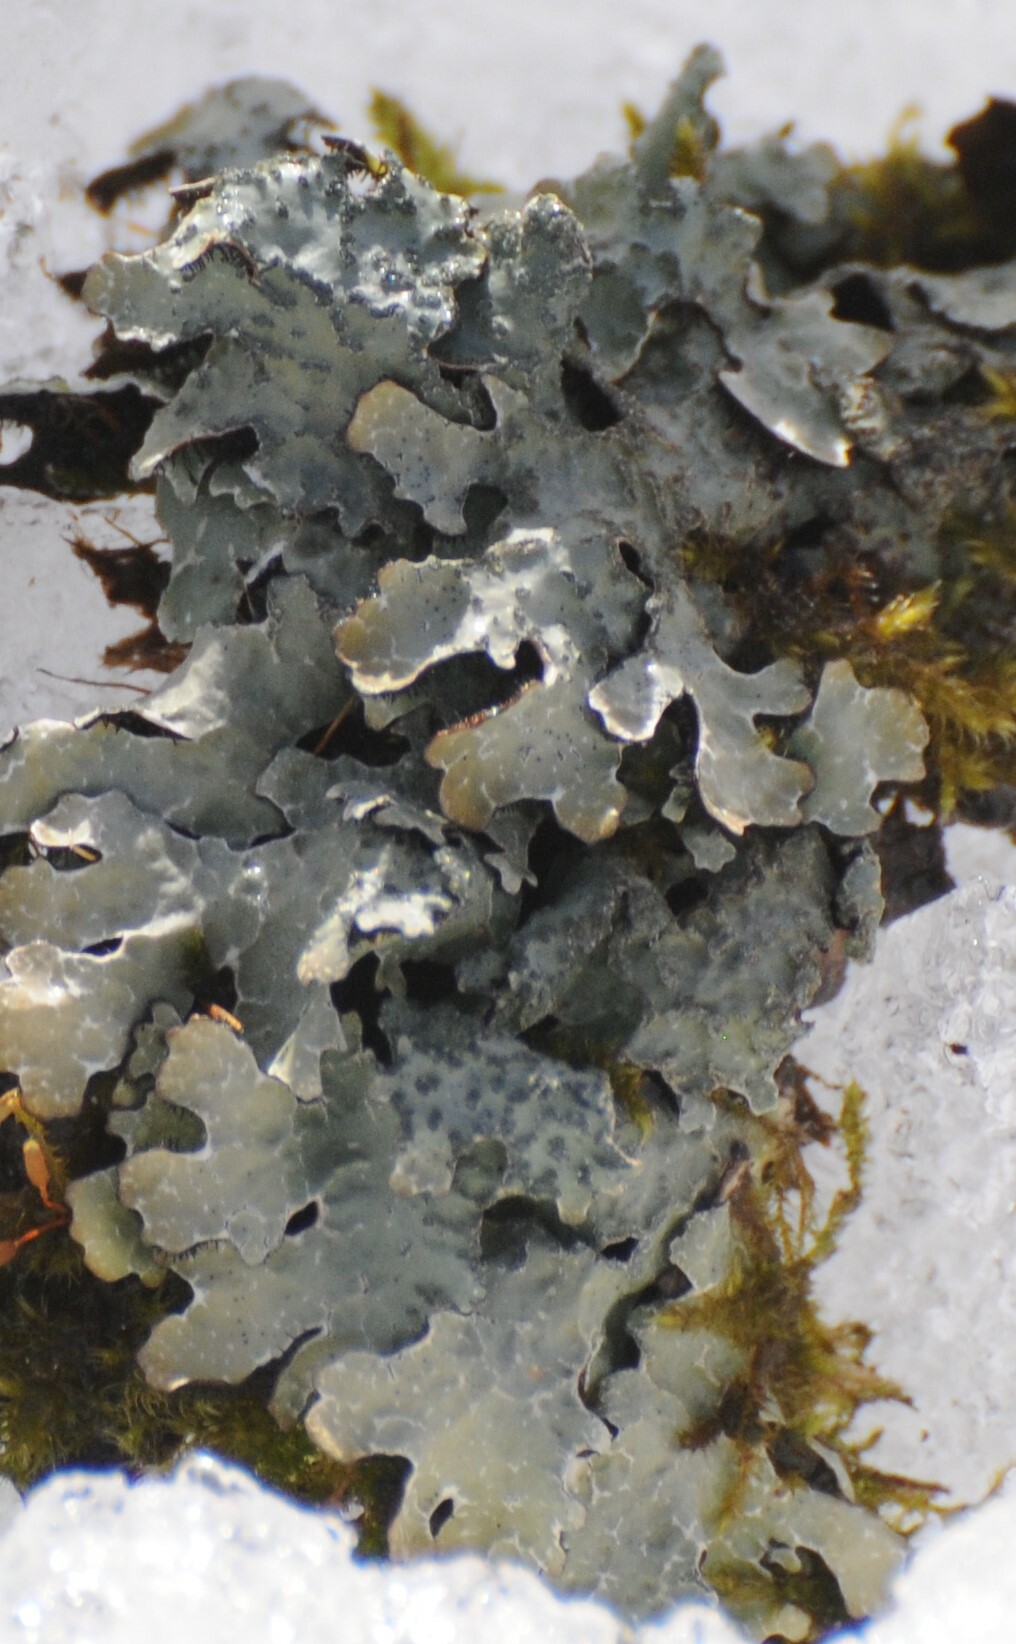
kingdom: Fungi
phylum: Ascomycota
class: Lecanoromycetes
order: Lecanorales
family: Parmeliaceae
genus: Parmelia
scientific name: Parmelia sulcata
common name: Netted shield lichen
